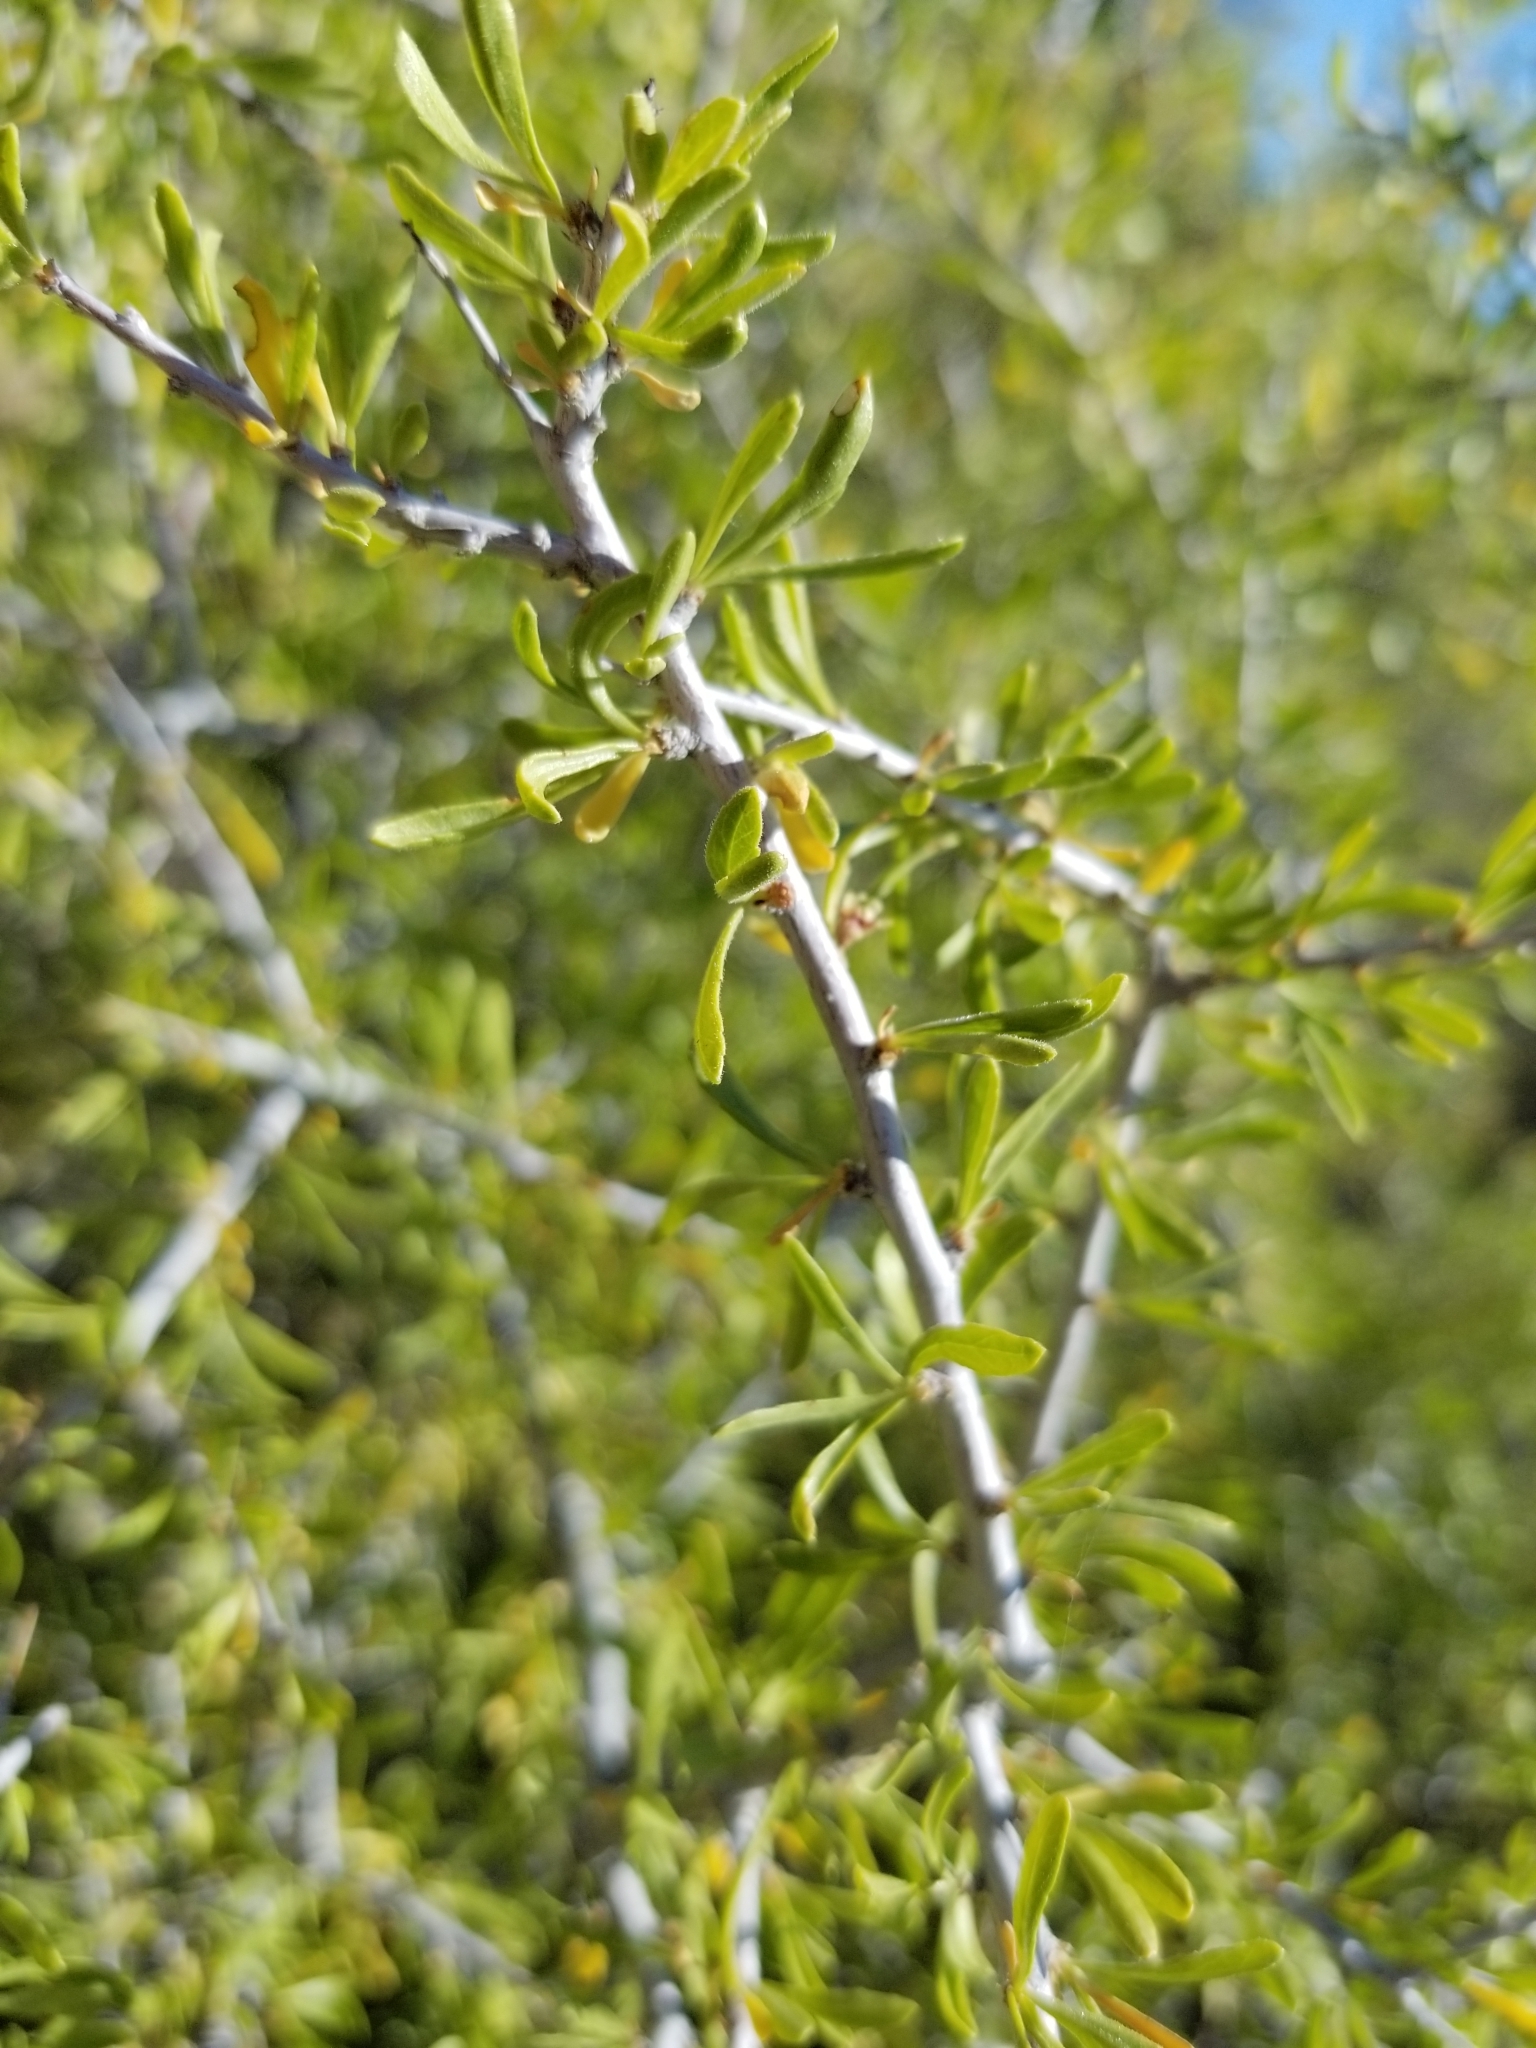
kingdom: Plantae
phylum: Tracheophyta
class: Magnoliopsida
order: Rosales
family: Rosaceae
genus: Prunus
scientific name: Prunus fasciculata
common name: Desert almond
